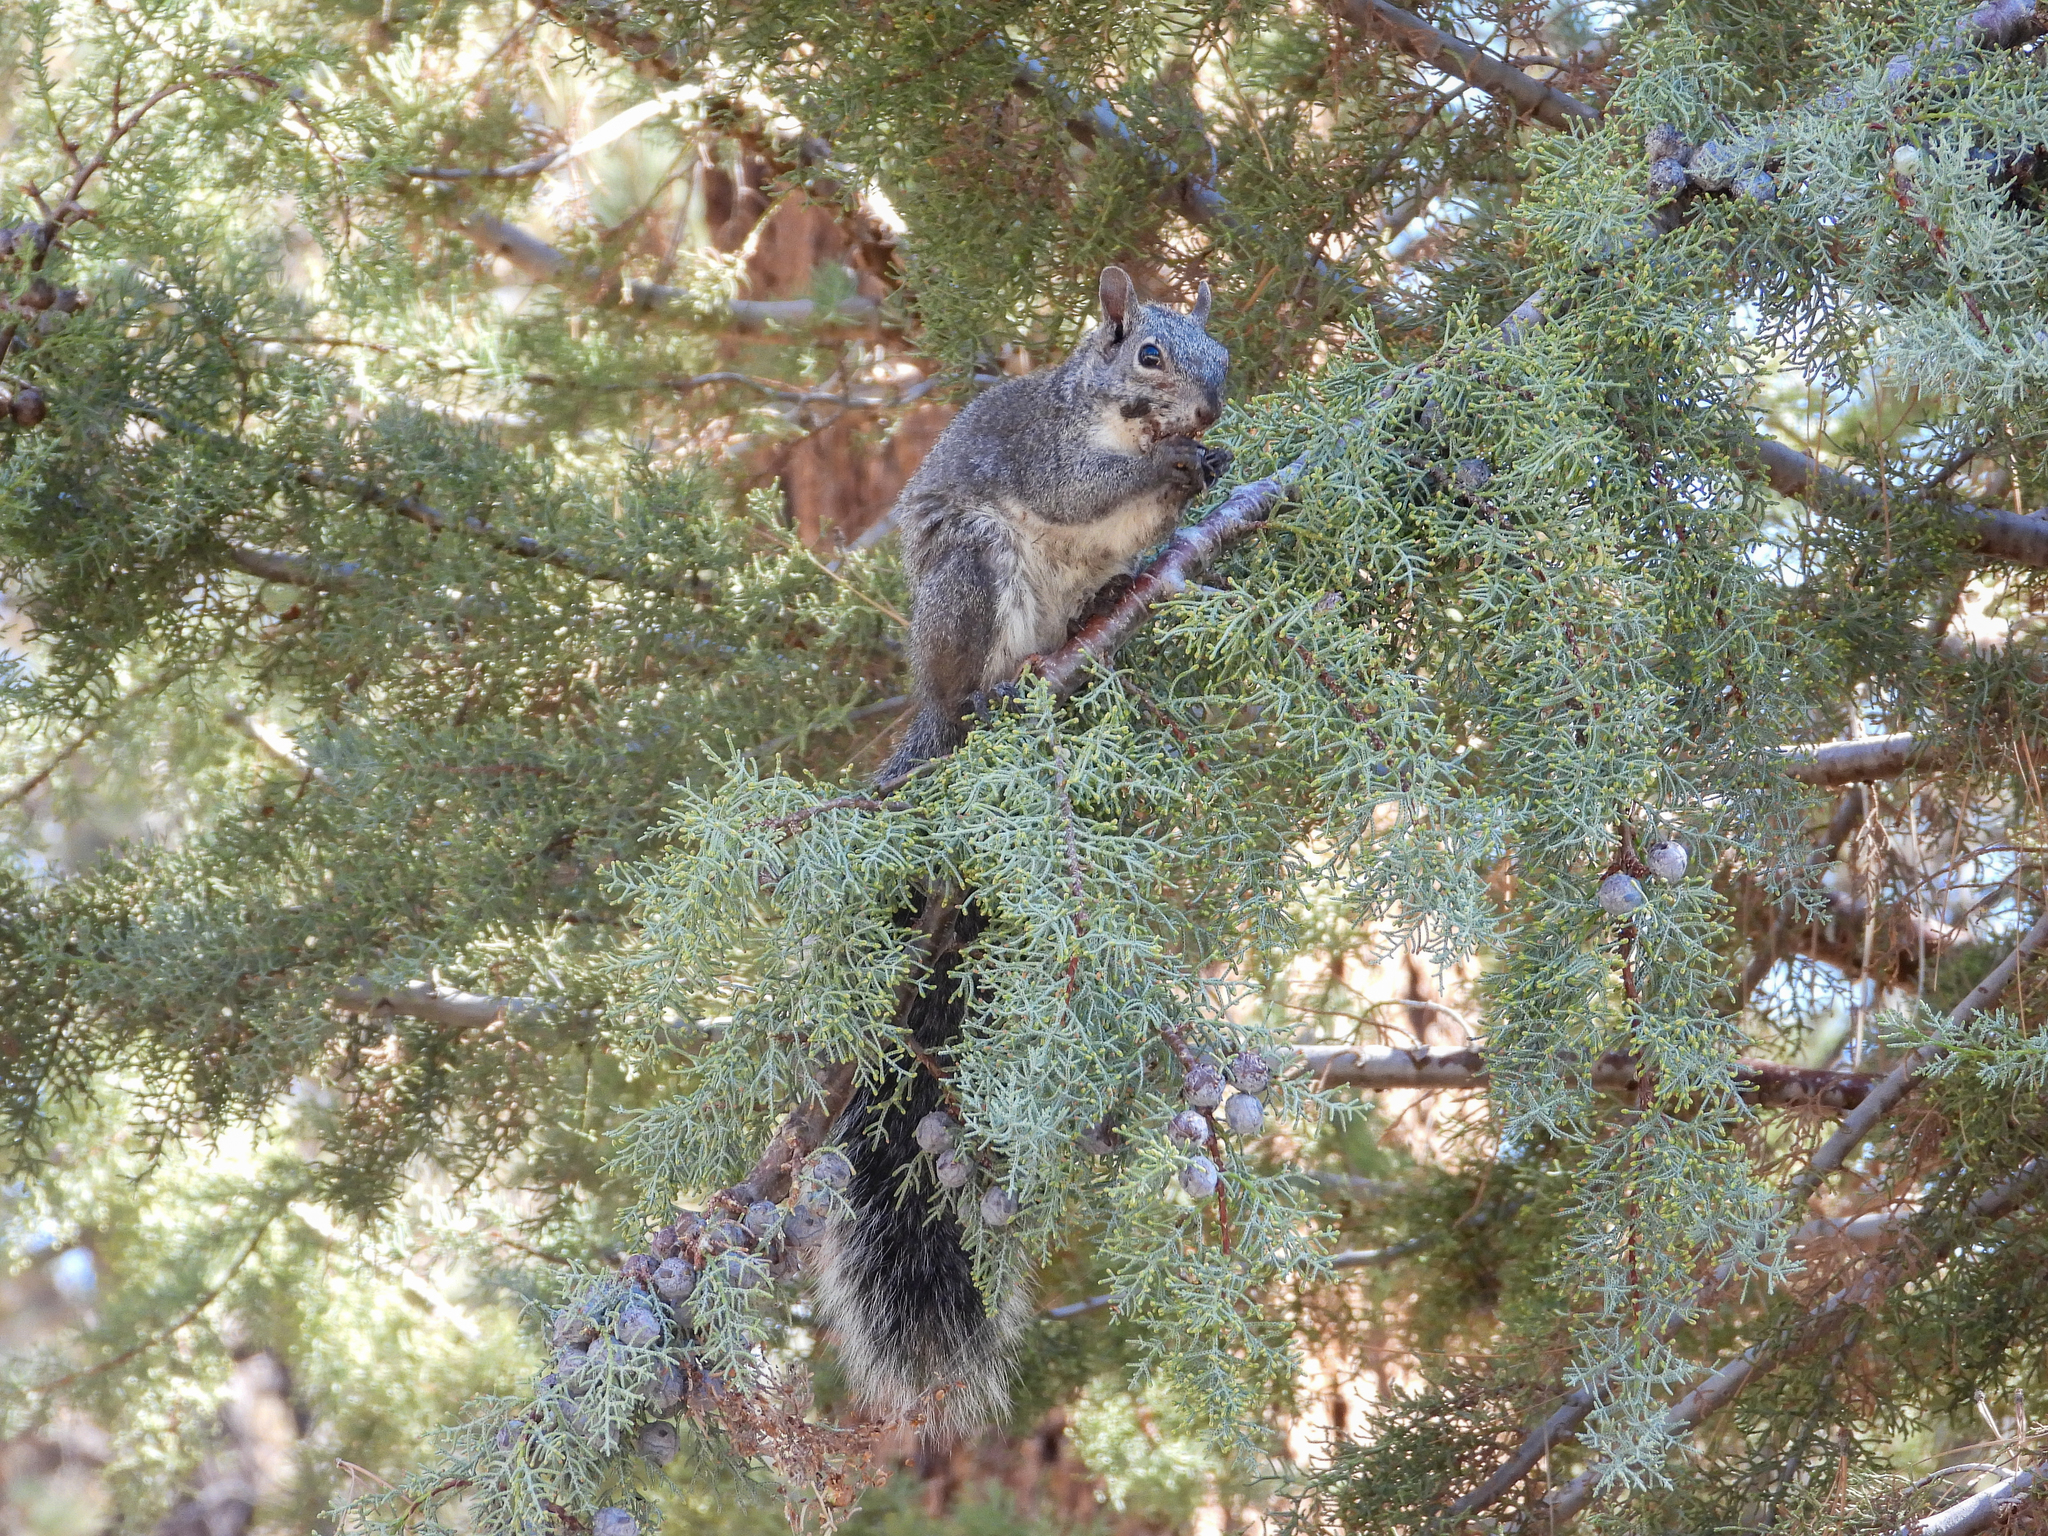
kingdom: Animalia
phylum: Chordata
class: Mammalia
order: Rodentia
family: Sciuridae
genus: Sciurus
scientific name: Sciurus griseus
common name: Western gray squirrel
